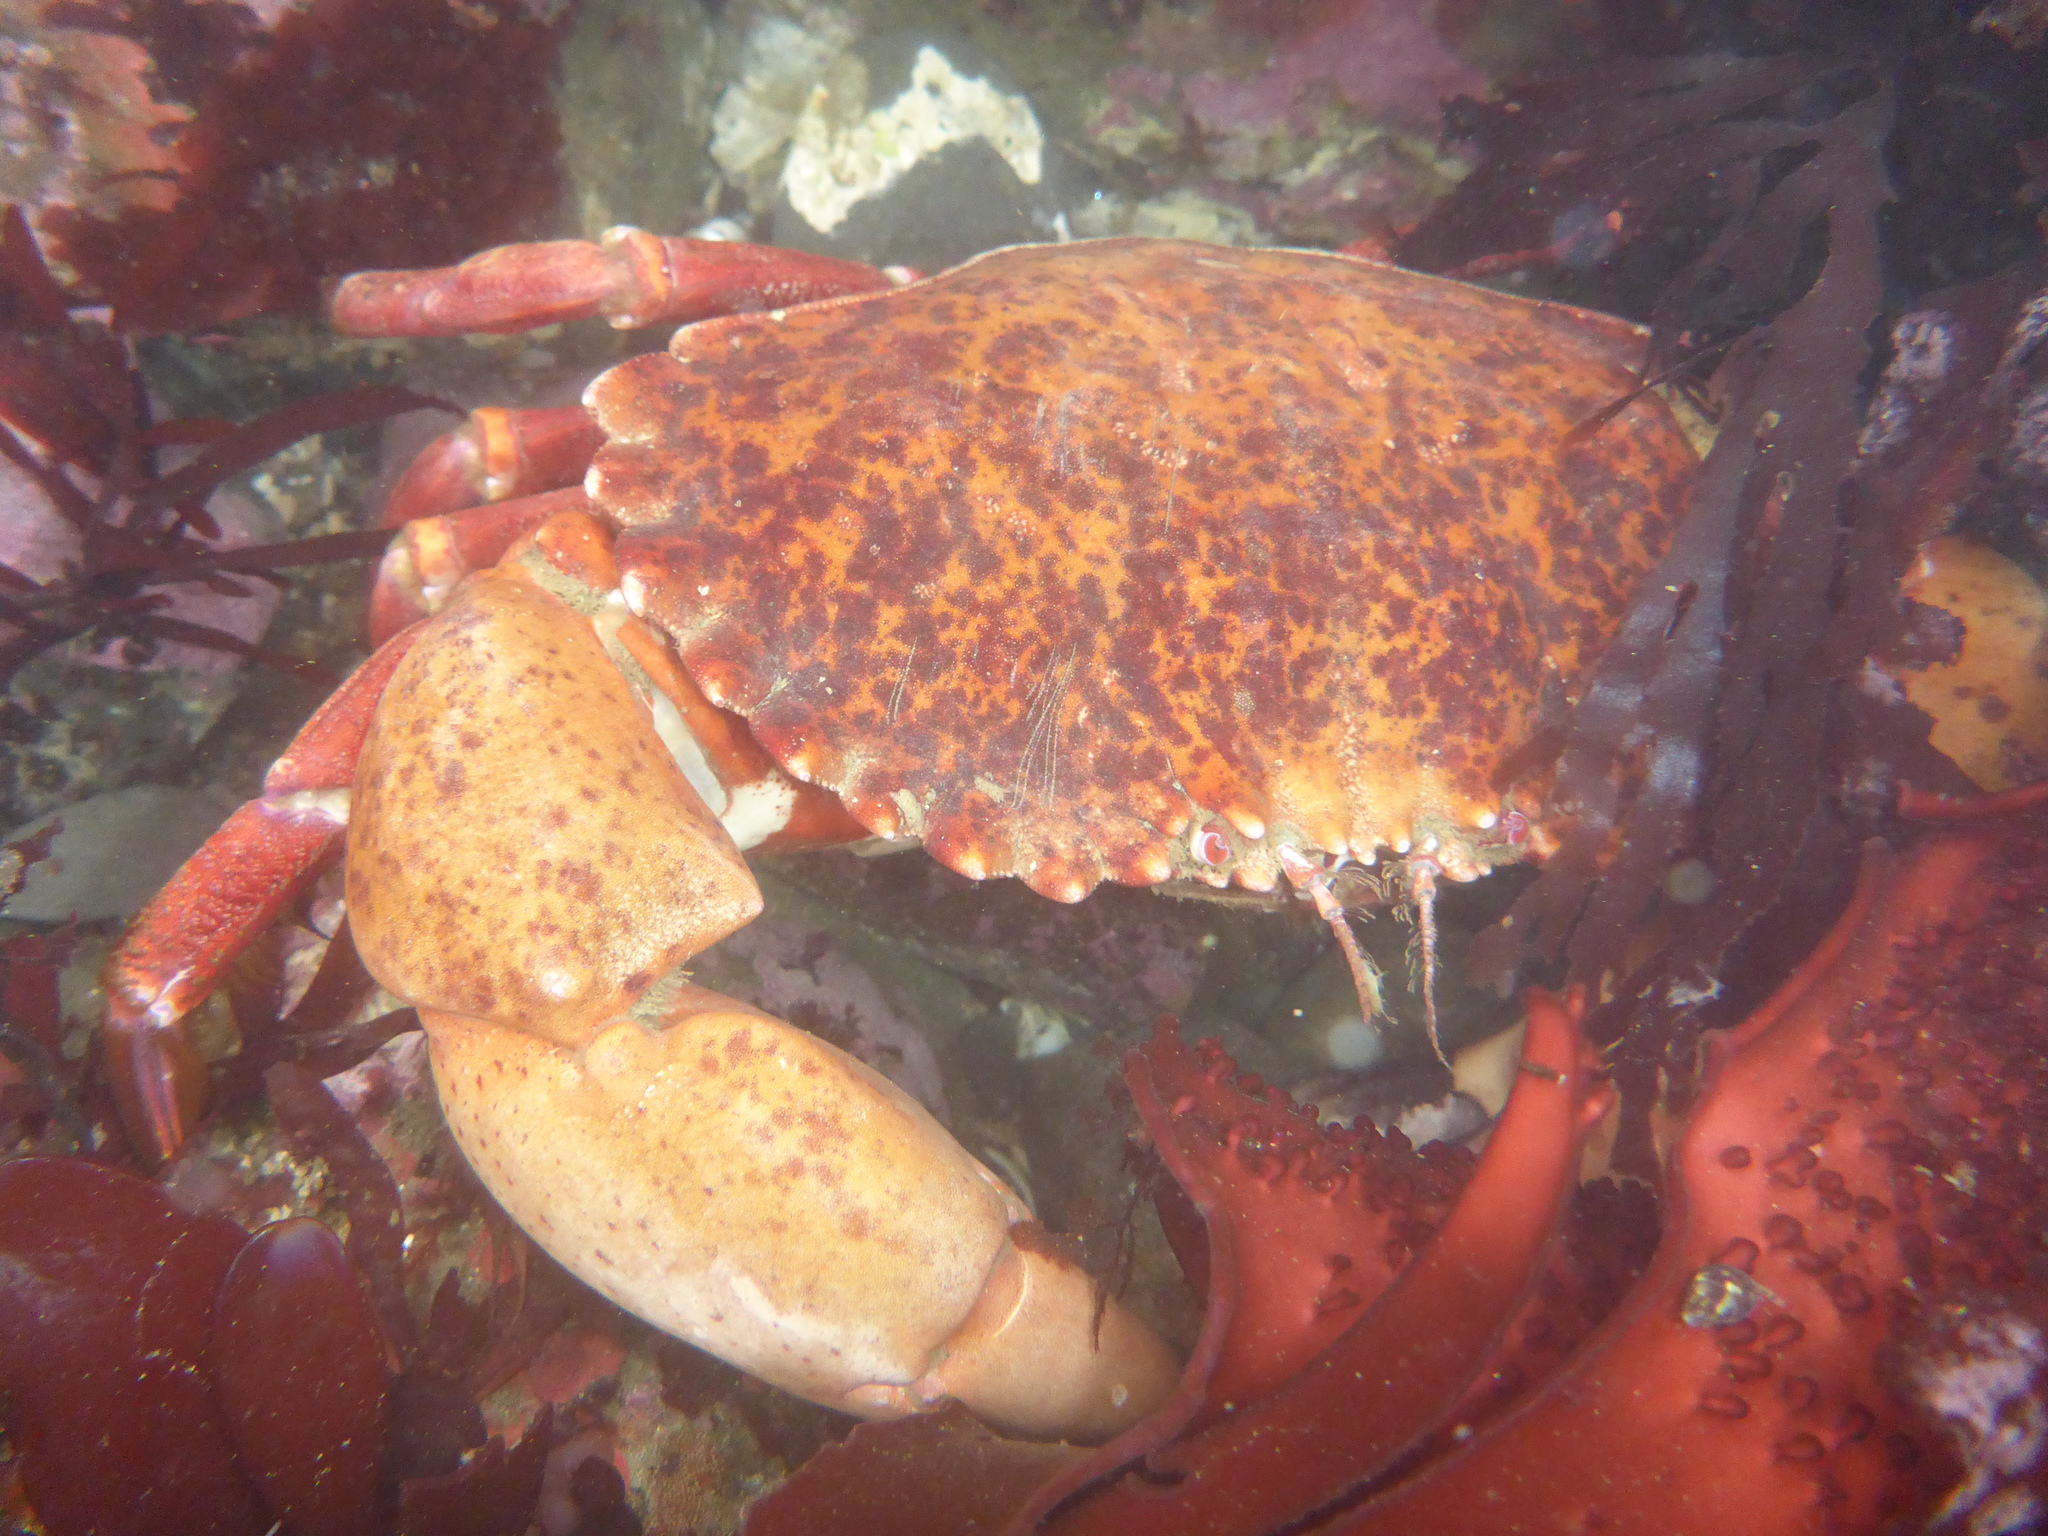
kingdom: Animalia
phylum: Arthropoda
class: Malacostraca
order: Decapoda
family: Cancridae
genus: Romaleon
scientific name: Romaleon antennarium
